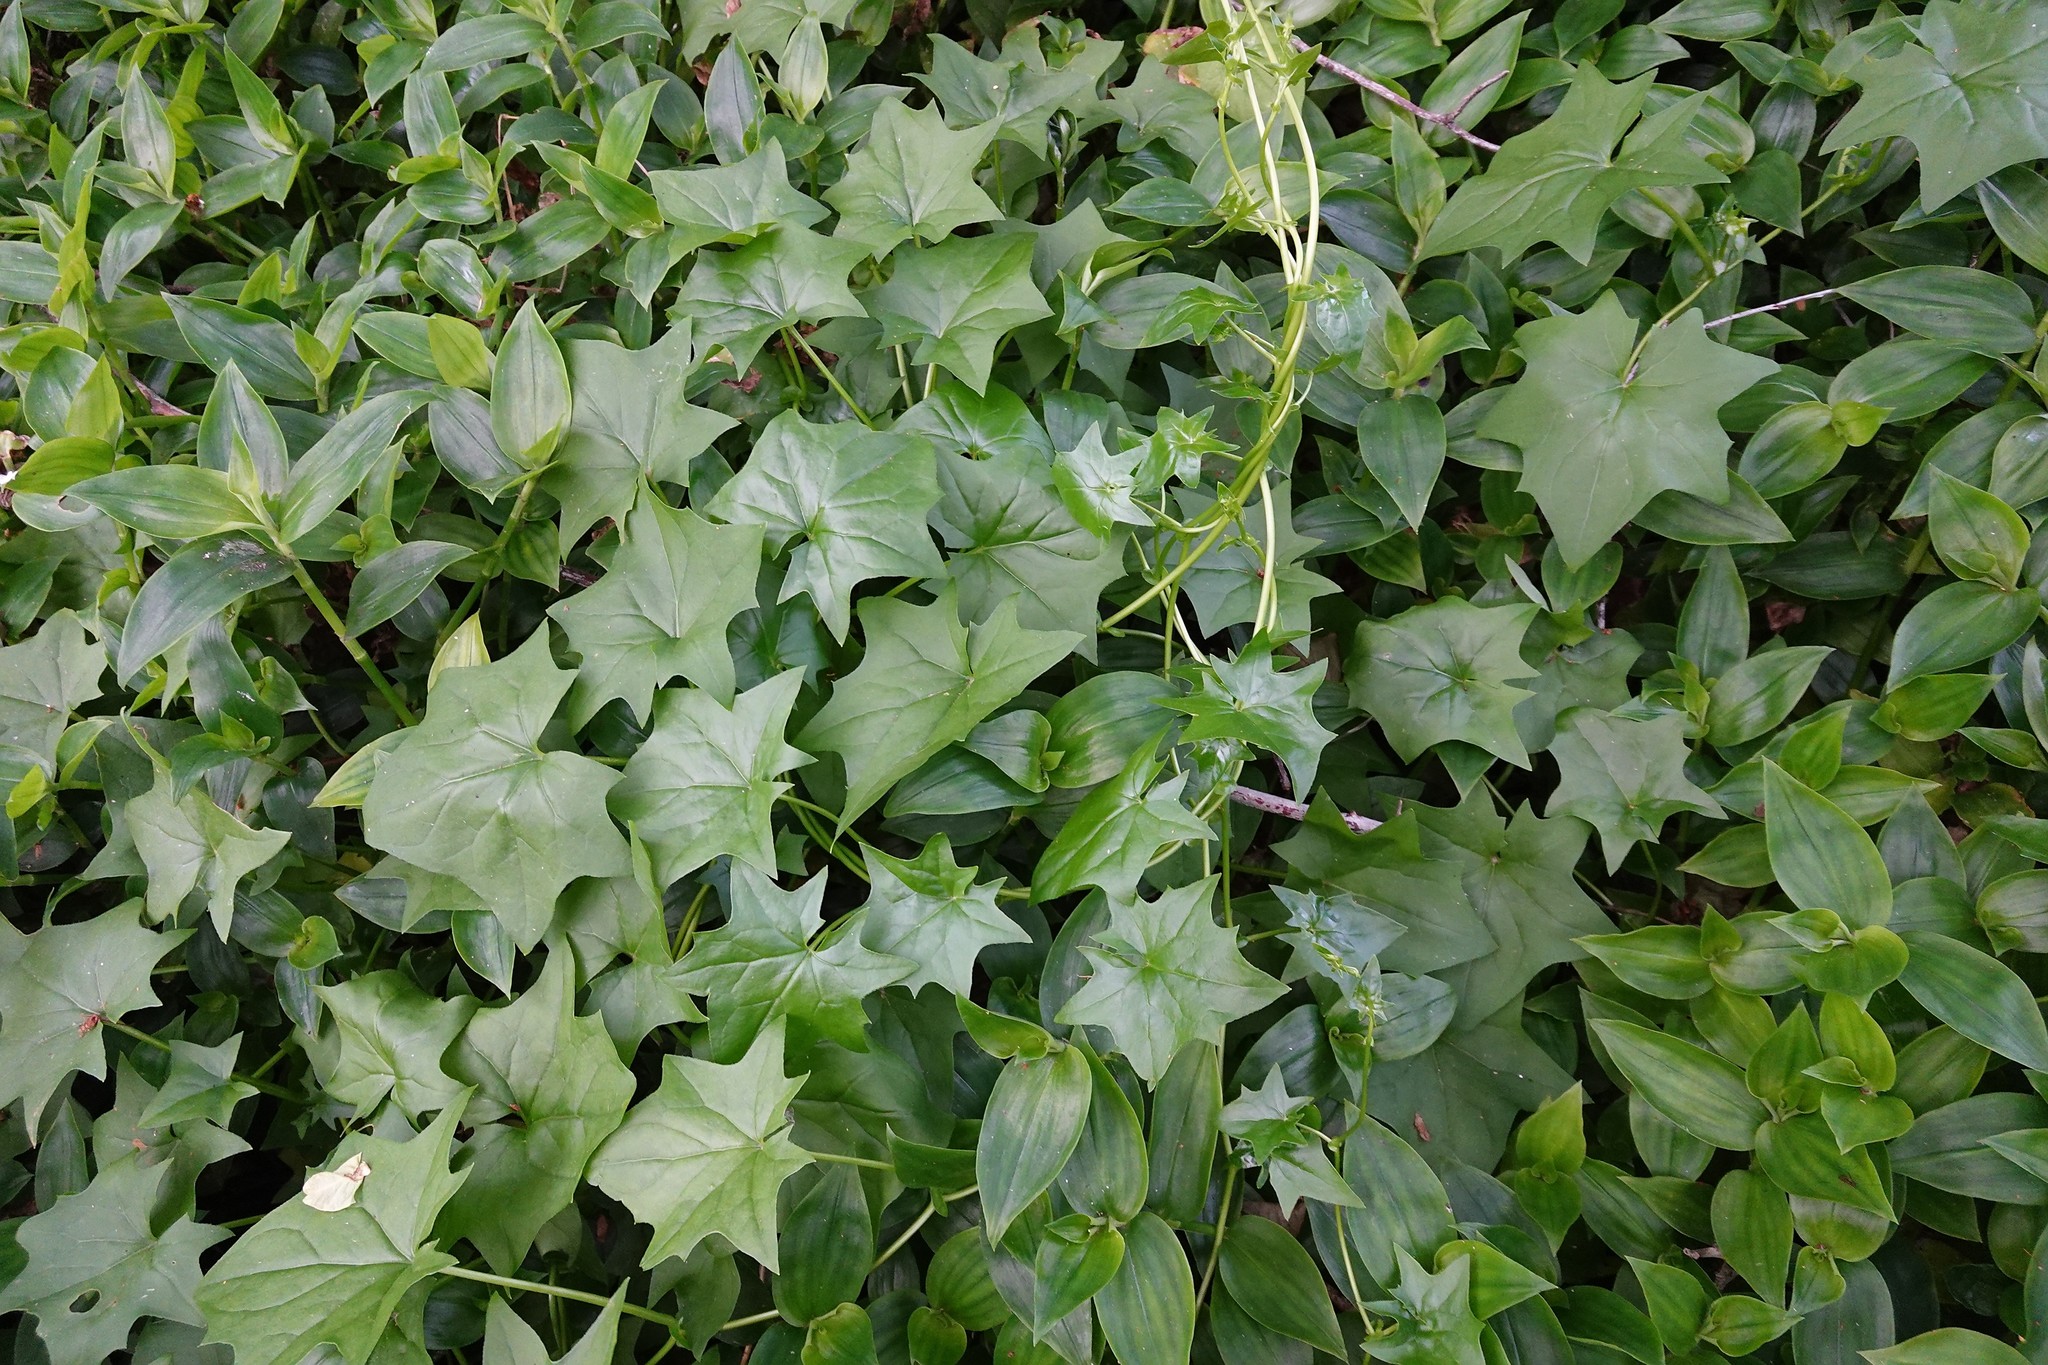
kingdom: Plantae
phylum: Tracheophyta
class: Magnoliopsida
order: Asterales
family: Asteraceae
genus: Delairea
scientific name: Delairea odorata
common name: Cape-ivy
